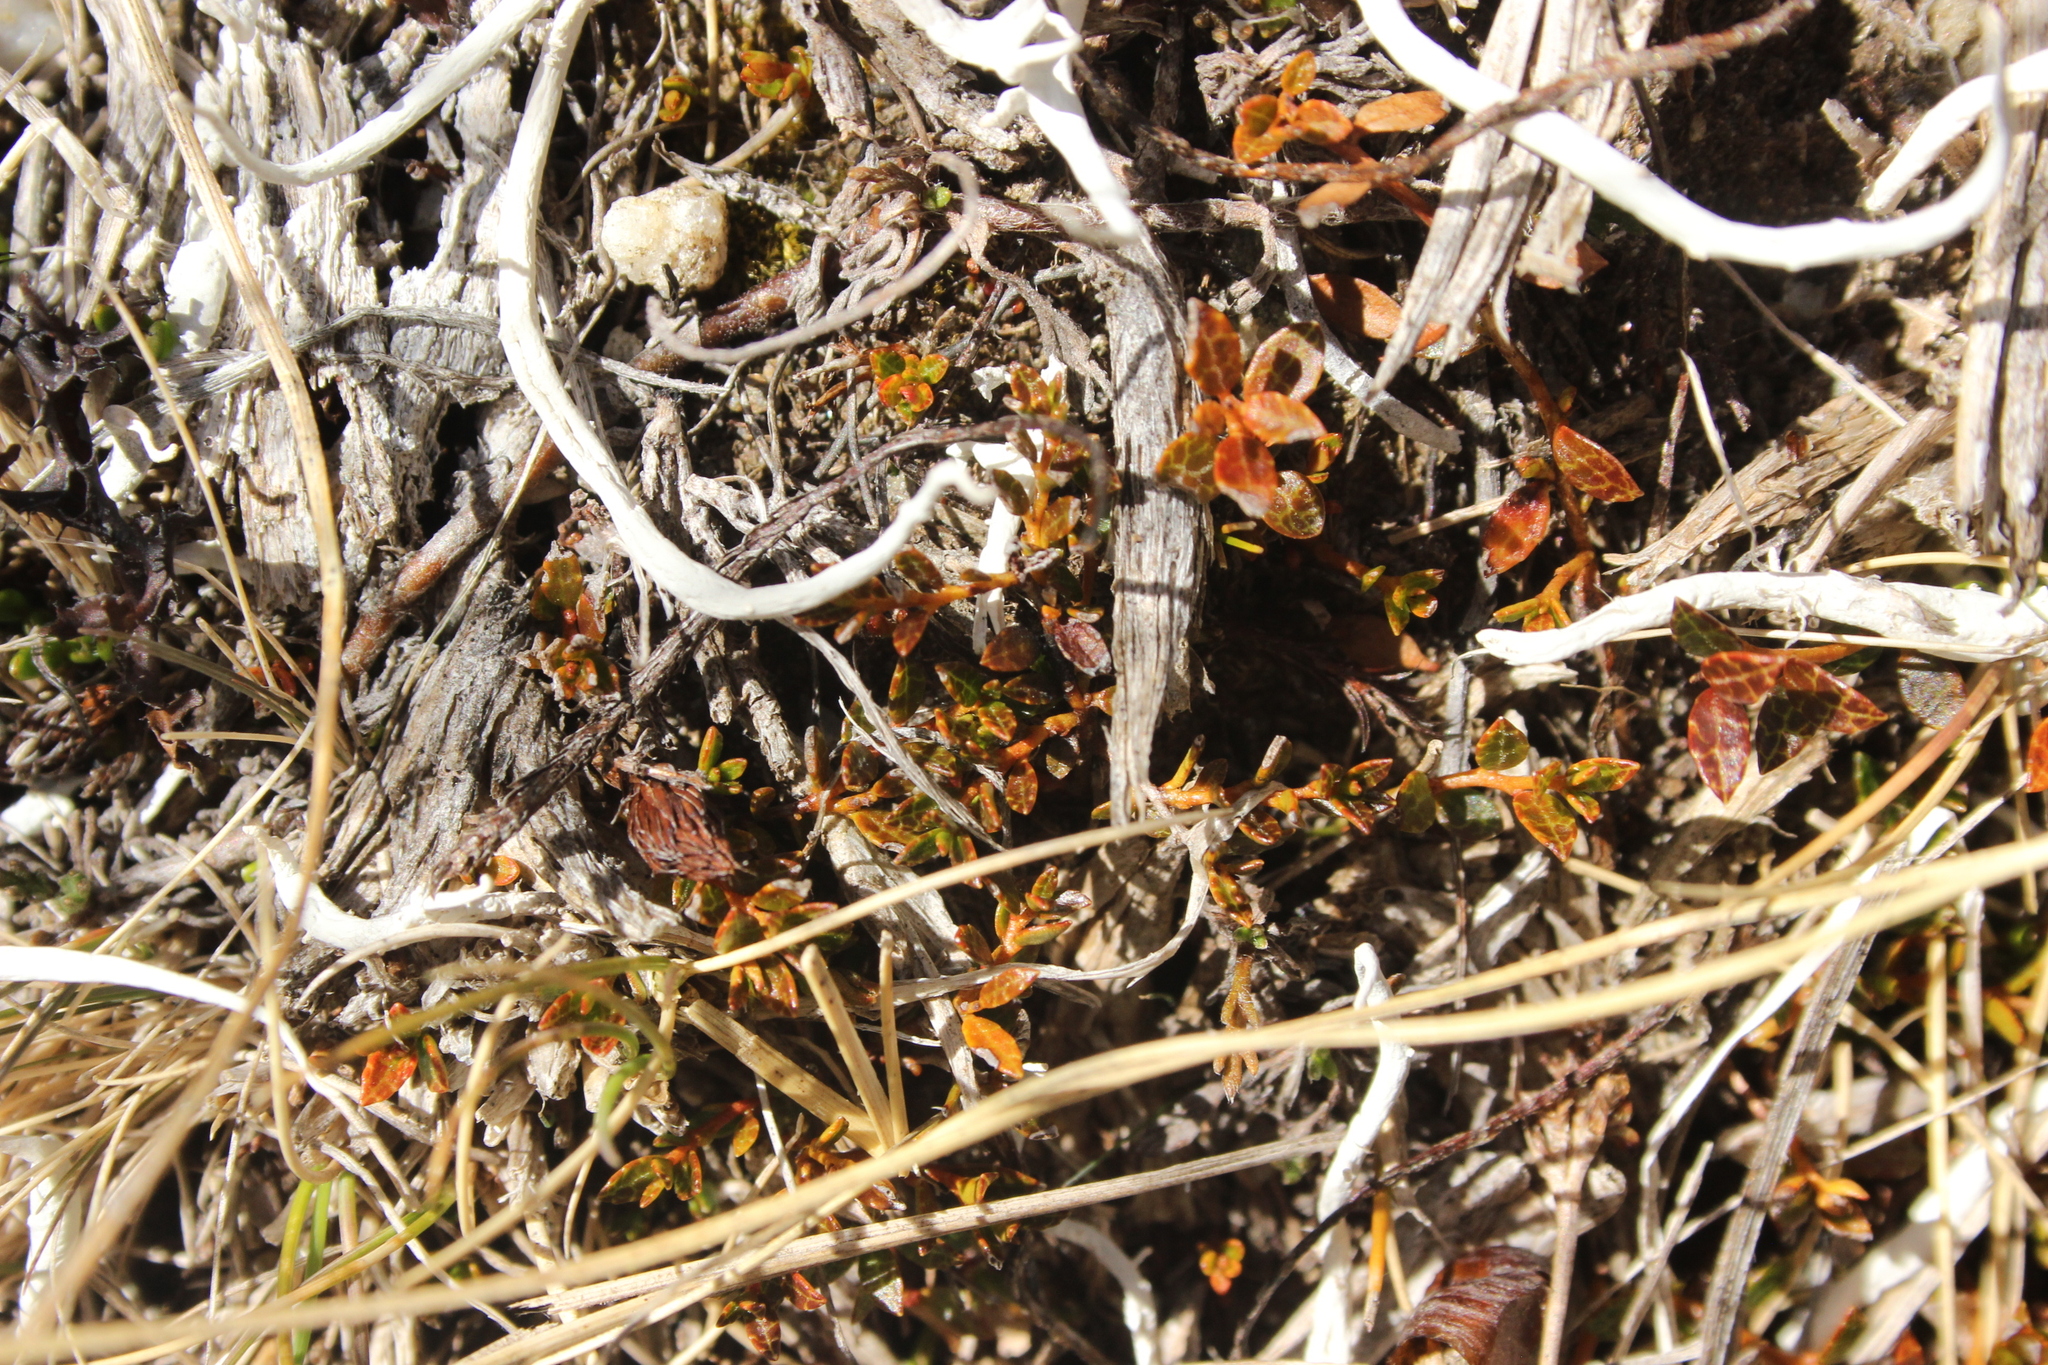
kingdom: Plantae
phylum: Tracheophyta
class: Magnoliopsida
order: Ericales
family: Ericaceae
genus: Gaultheria
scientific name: Gaultheria parvula
